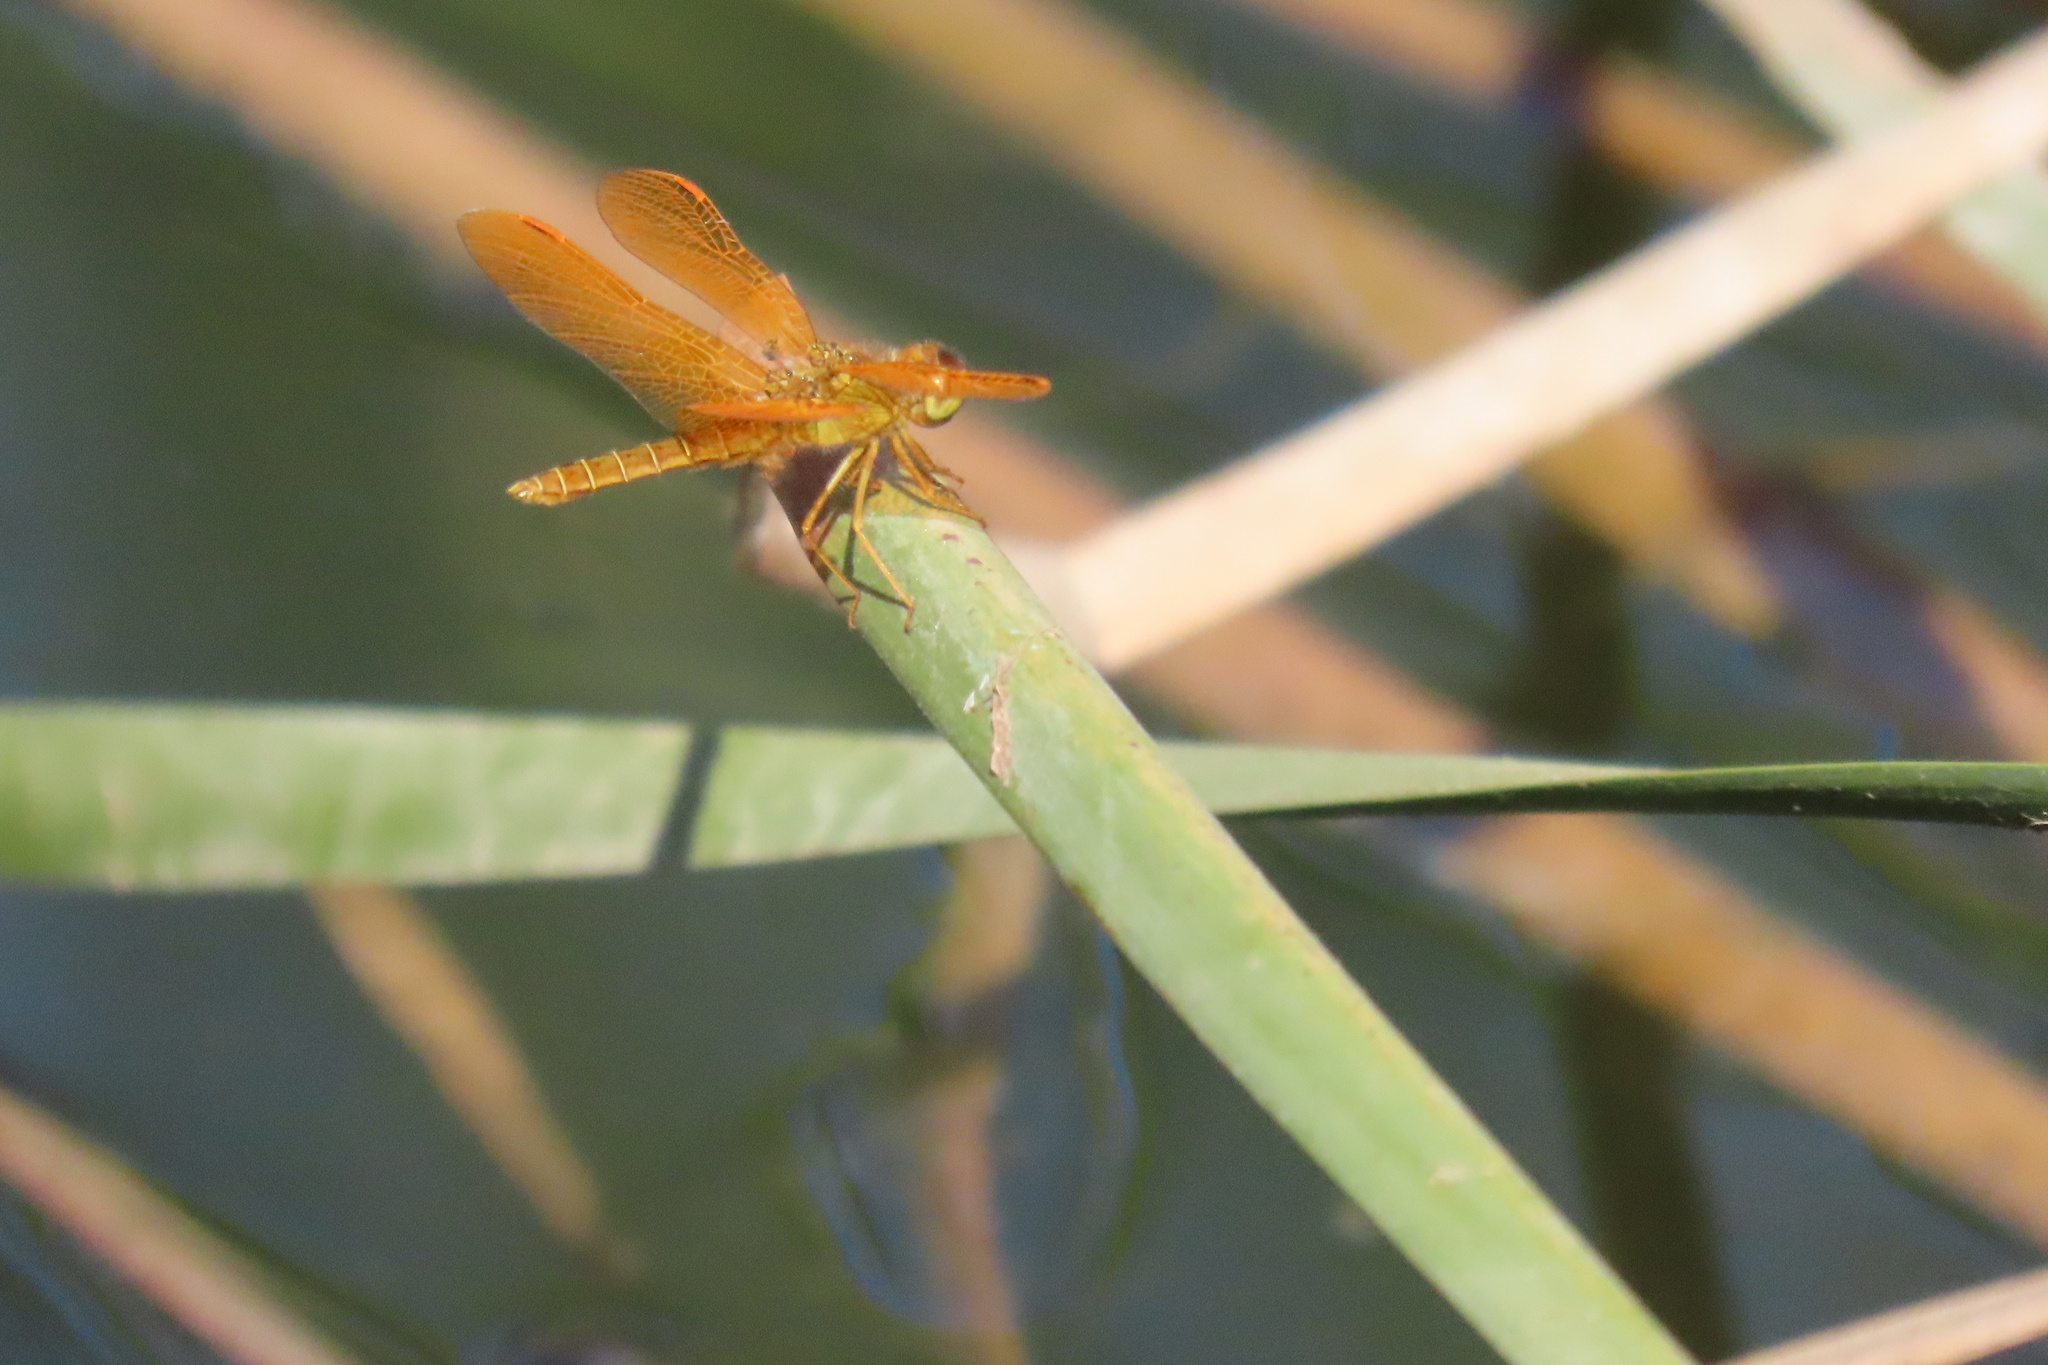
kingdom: Animalia
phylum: Arthropoda
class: Insecta
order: Odonata
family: Libellulidae
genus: Perithemis
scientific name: Perithemis intensa
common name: Mexican amberwing
